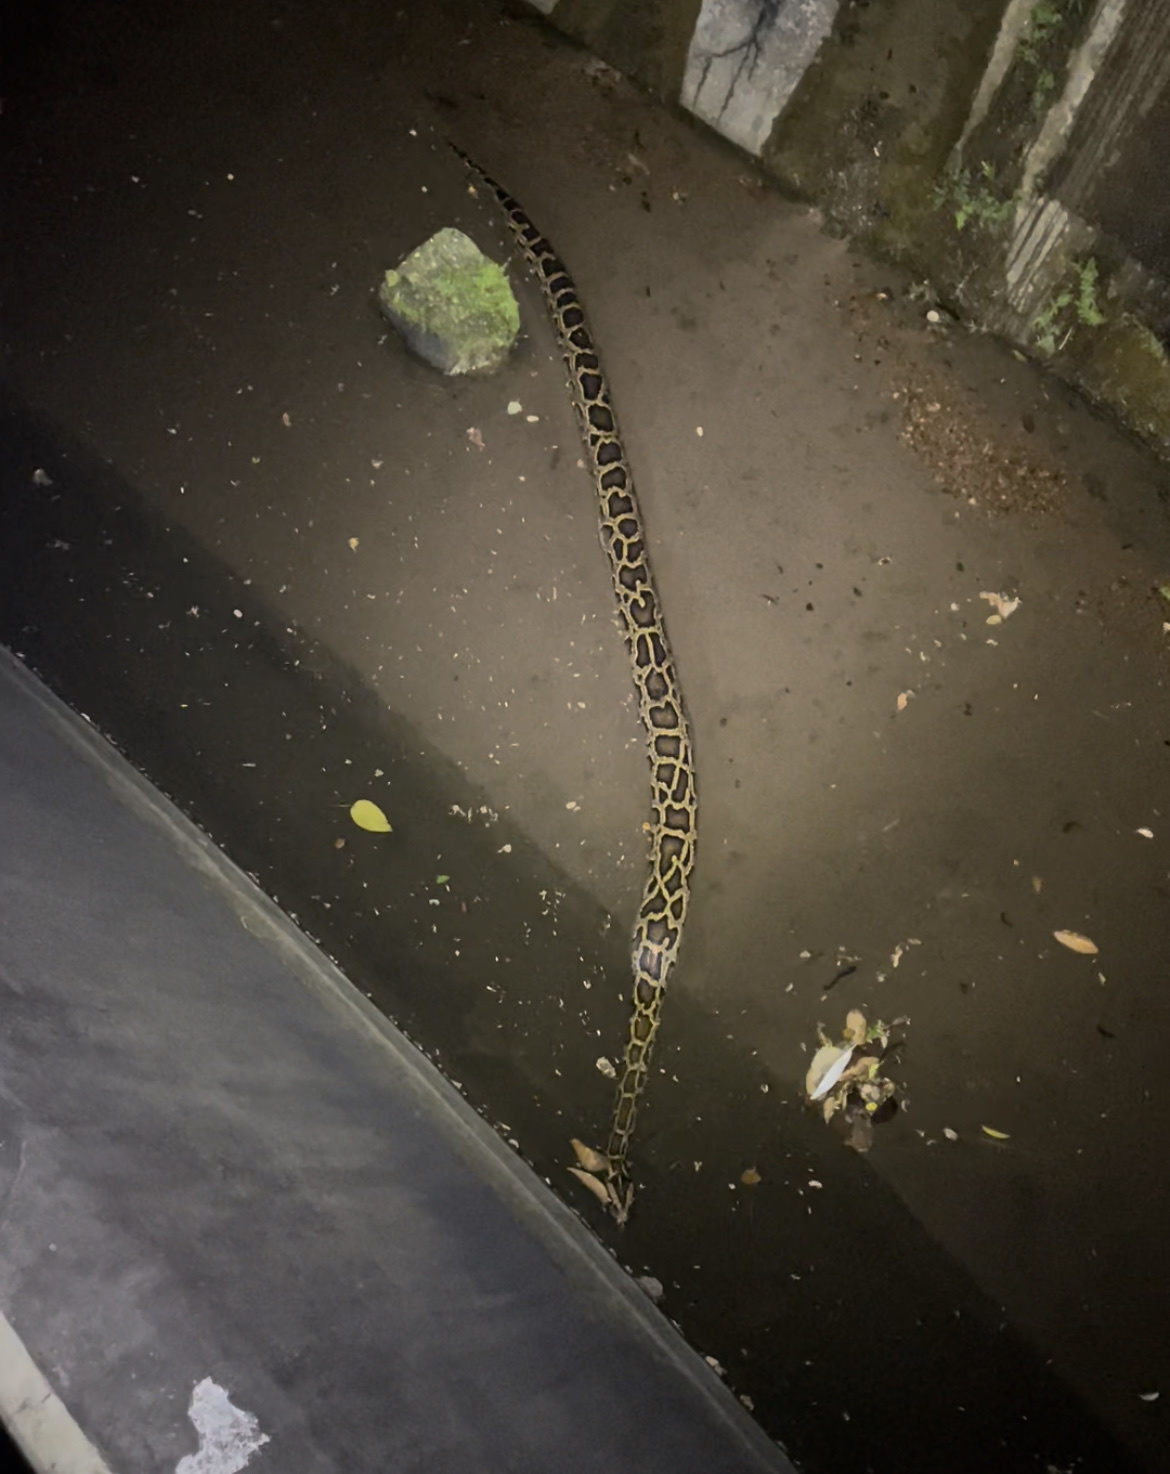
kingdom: Animalia
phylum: Chordata
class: Squamata
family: Pythonidae
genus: Python
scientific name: Python bivittatus
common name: Burmese python
